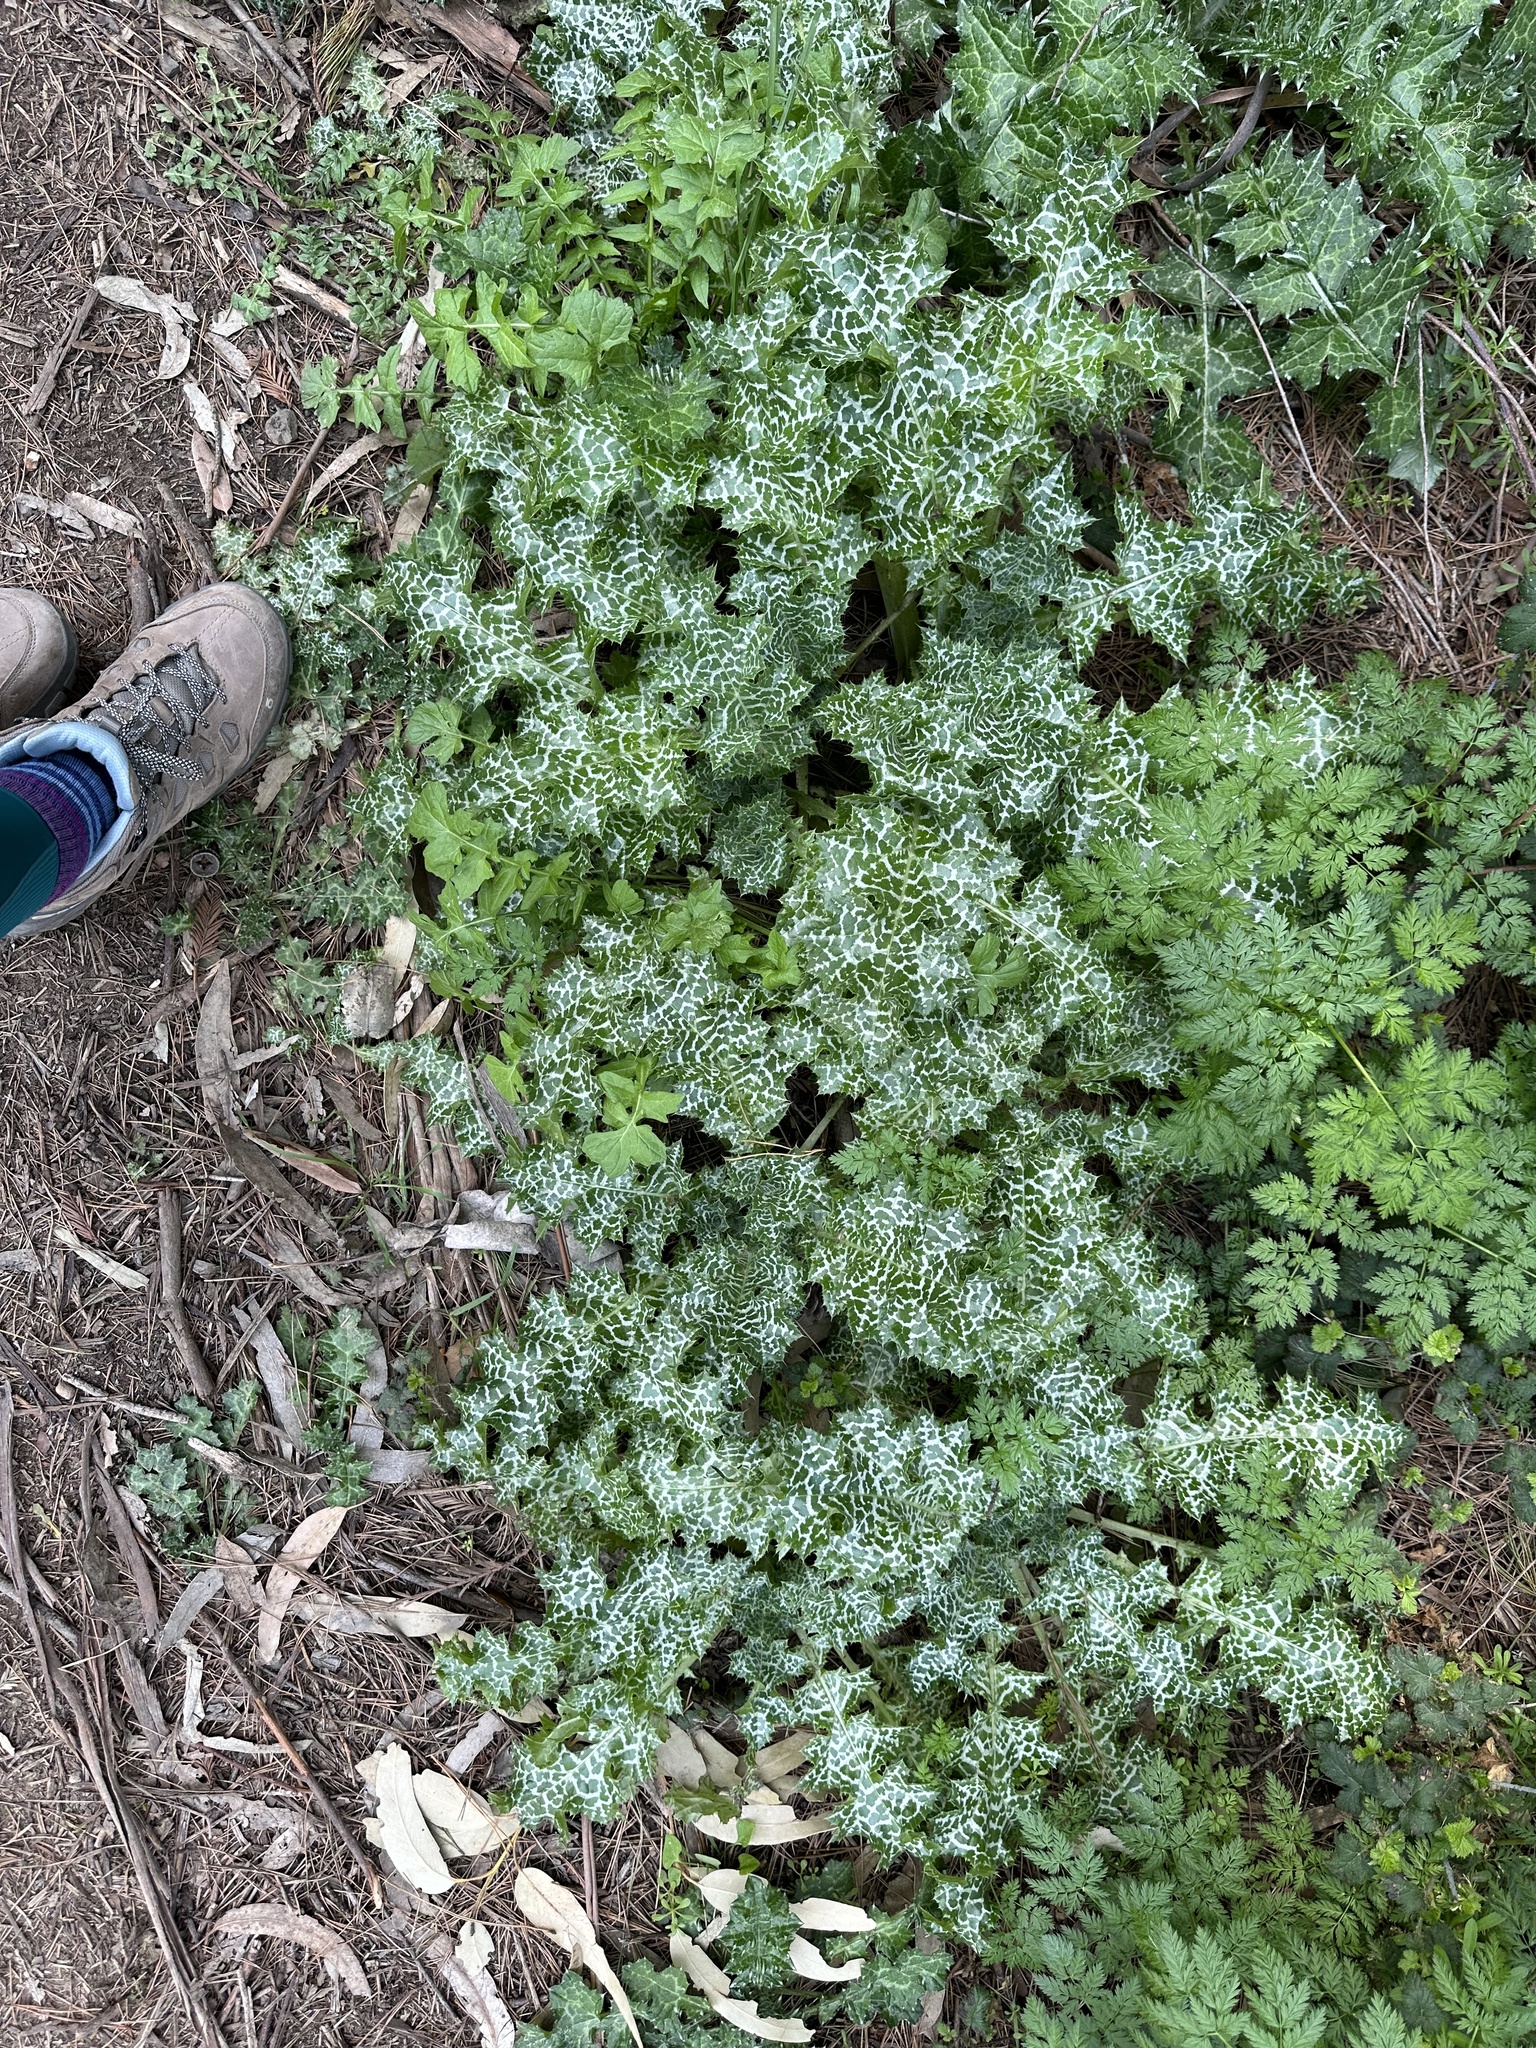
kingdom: Plantae
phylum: Tracheophyta
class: Magnoliopsida
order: Asterales
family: Asteraceae
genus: Silybum
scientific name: Silybum marianum
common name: Milk thistle
